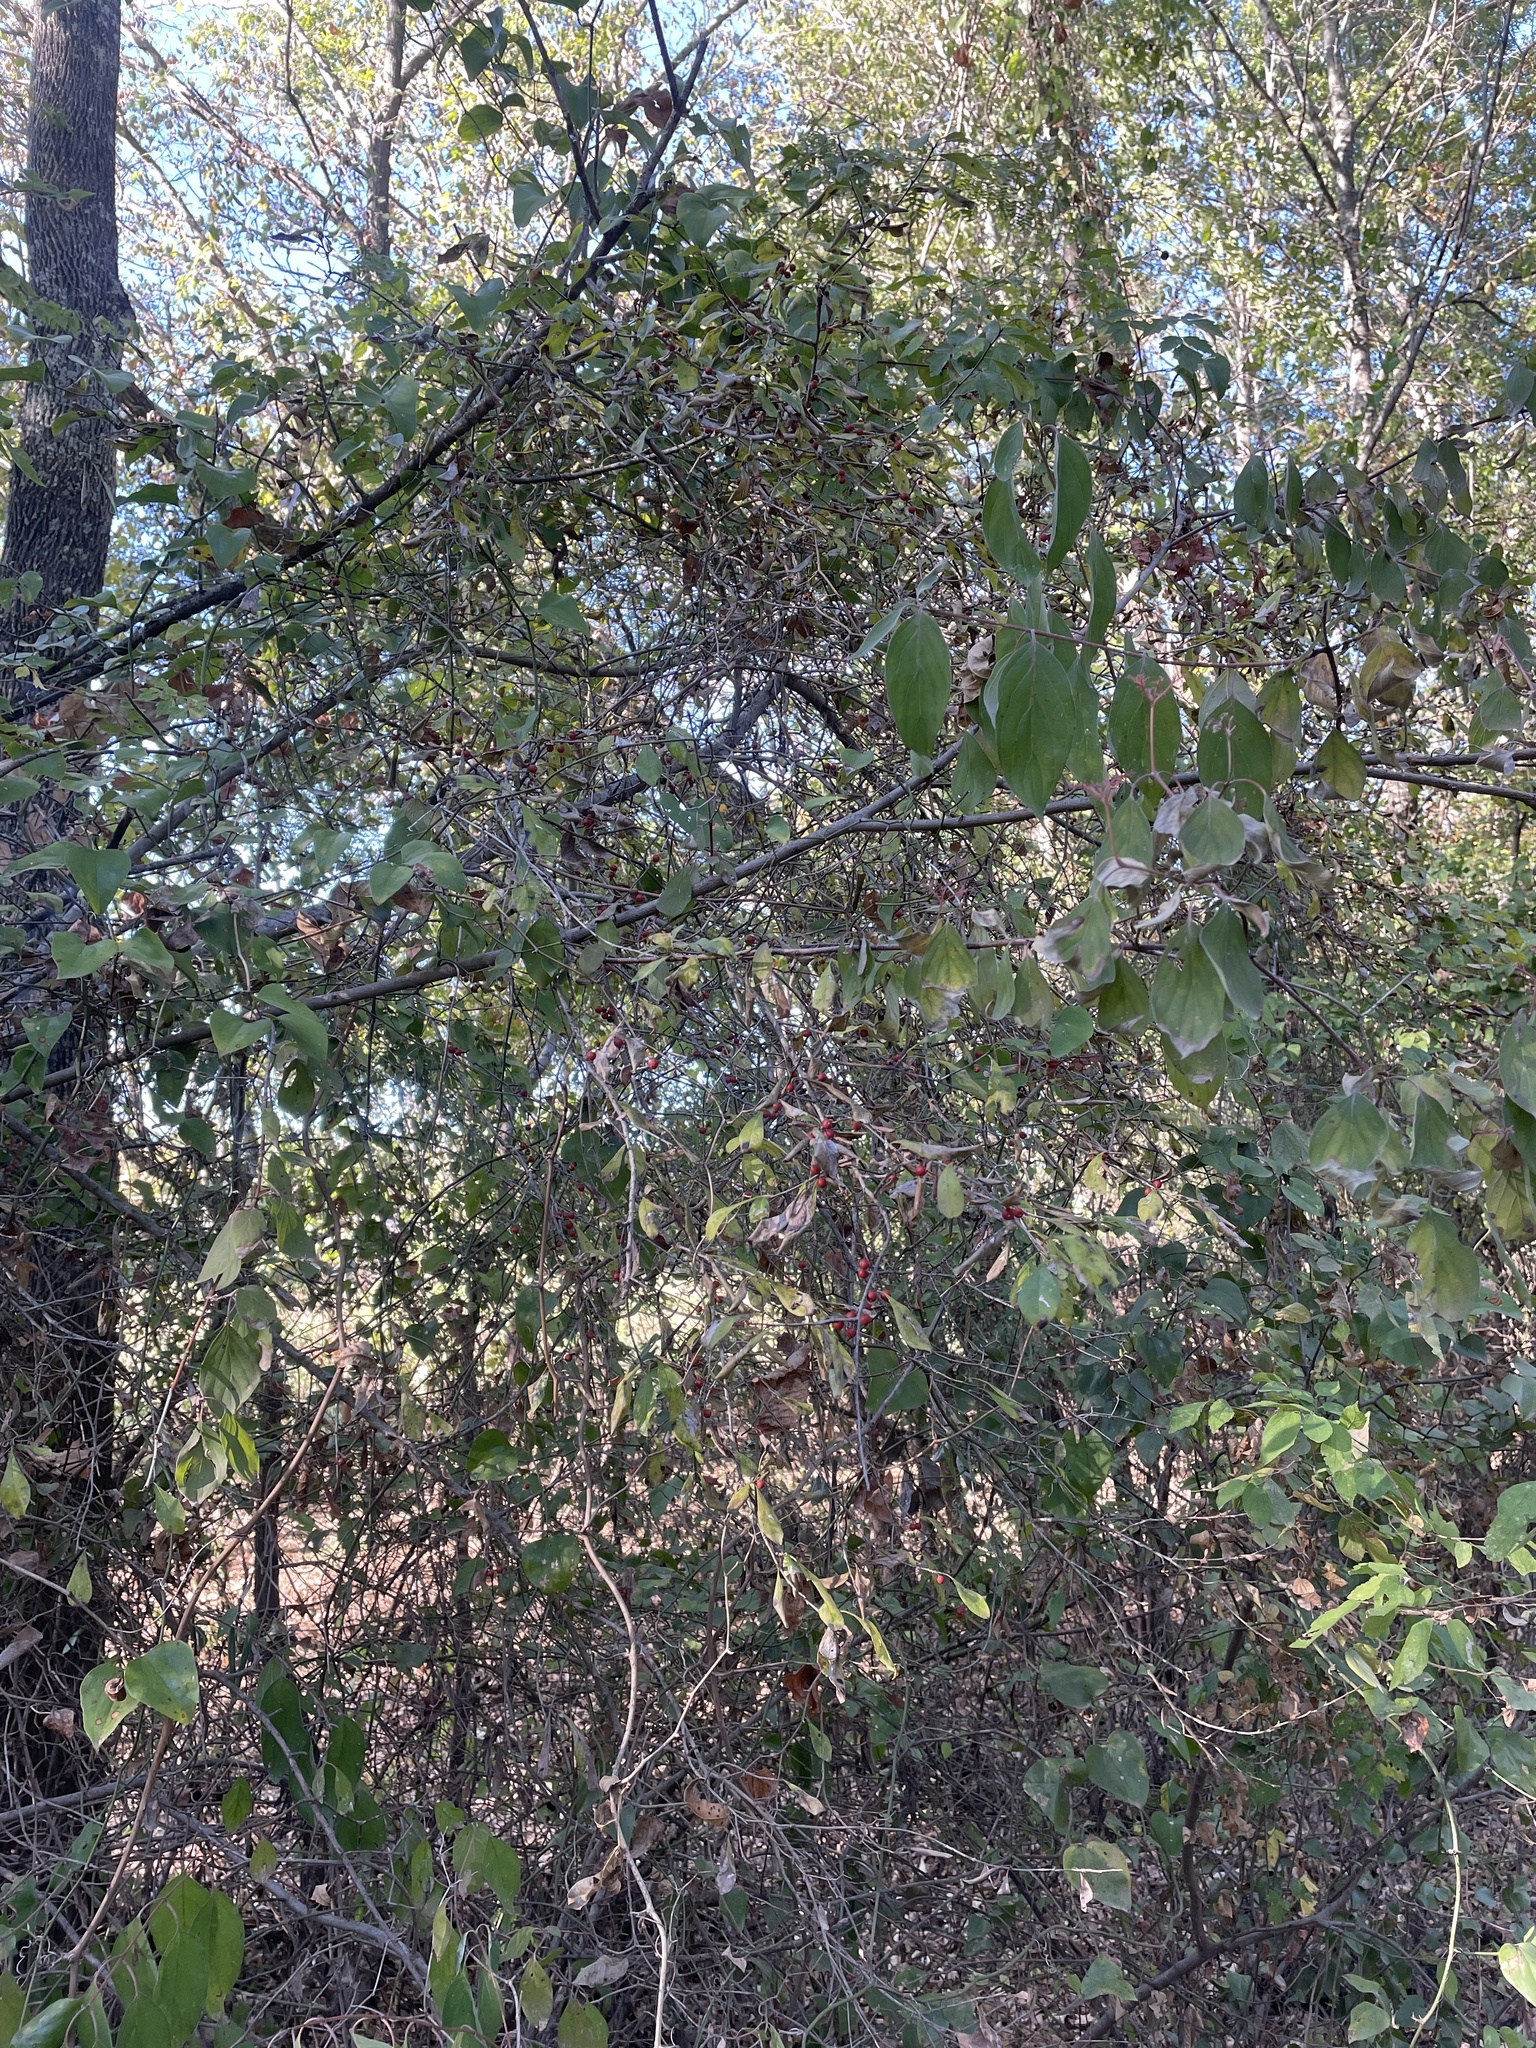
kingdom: Plantae
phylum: Tracheophyta
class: Magnoliopsida
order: Aquifoliales
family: Aquifoliaceae
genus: Ilex
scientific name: Ilex decidua
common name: Possum-haw
